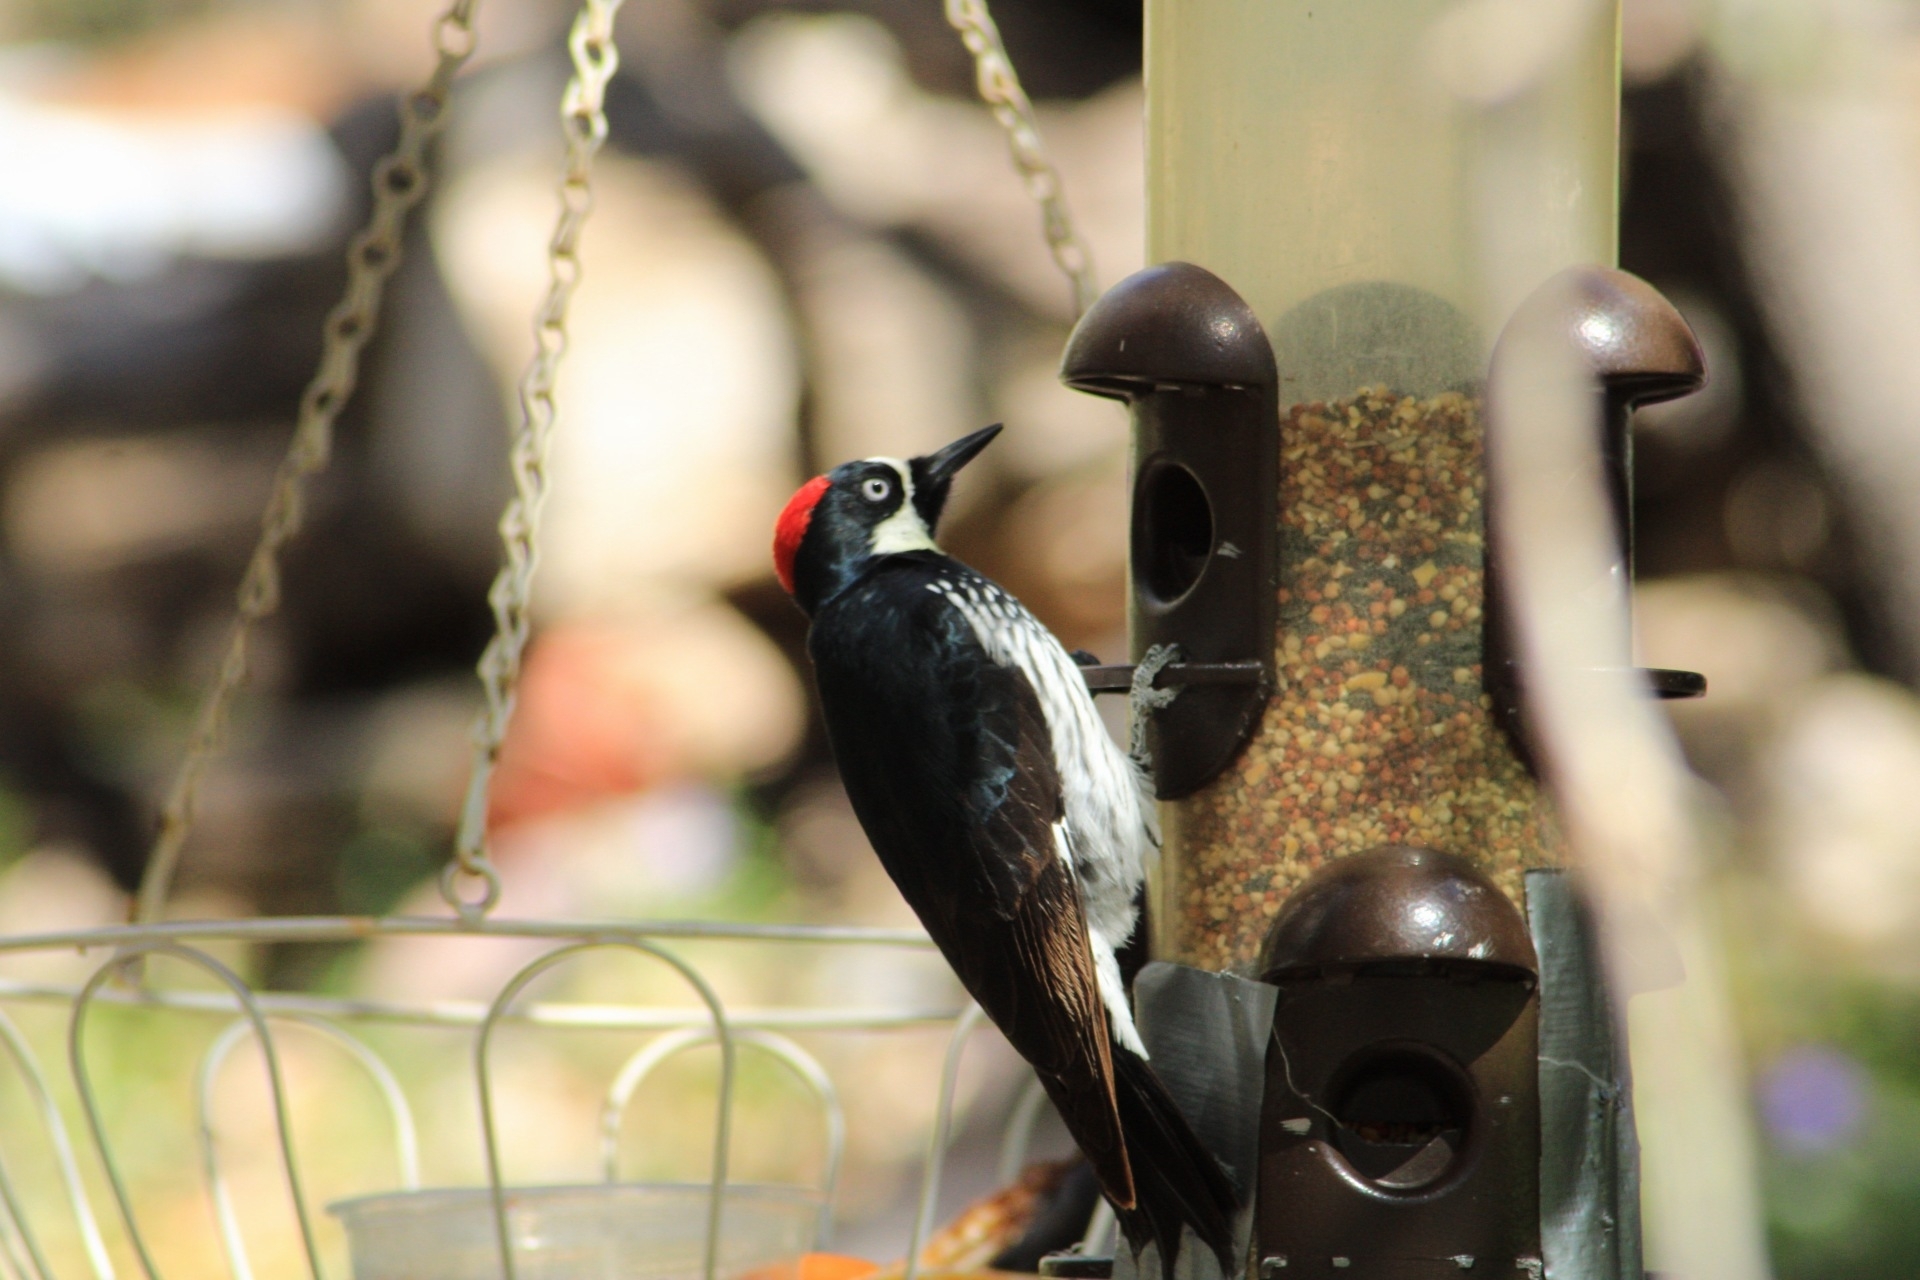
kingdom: Animalia
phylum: Chordata
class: Aves
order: Piciformes
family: Picidae
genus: Melanerpes
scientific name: Melanerpes formicivorus
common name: Acorn woodpecker
